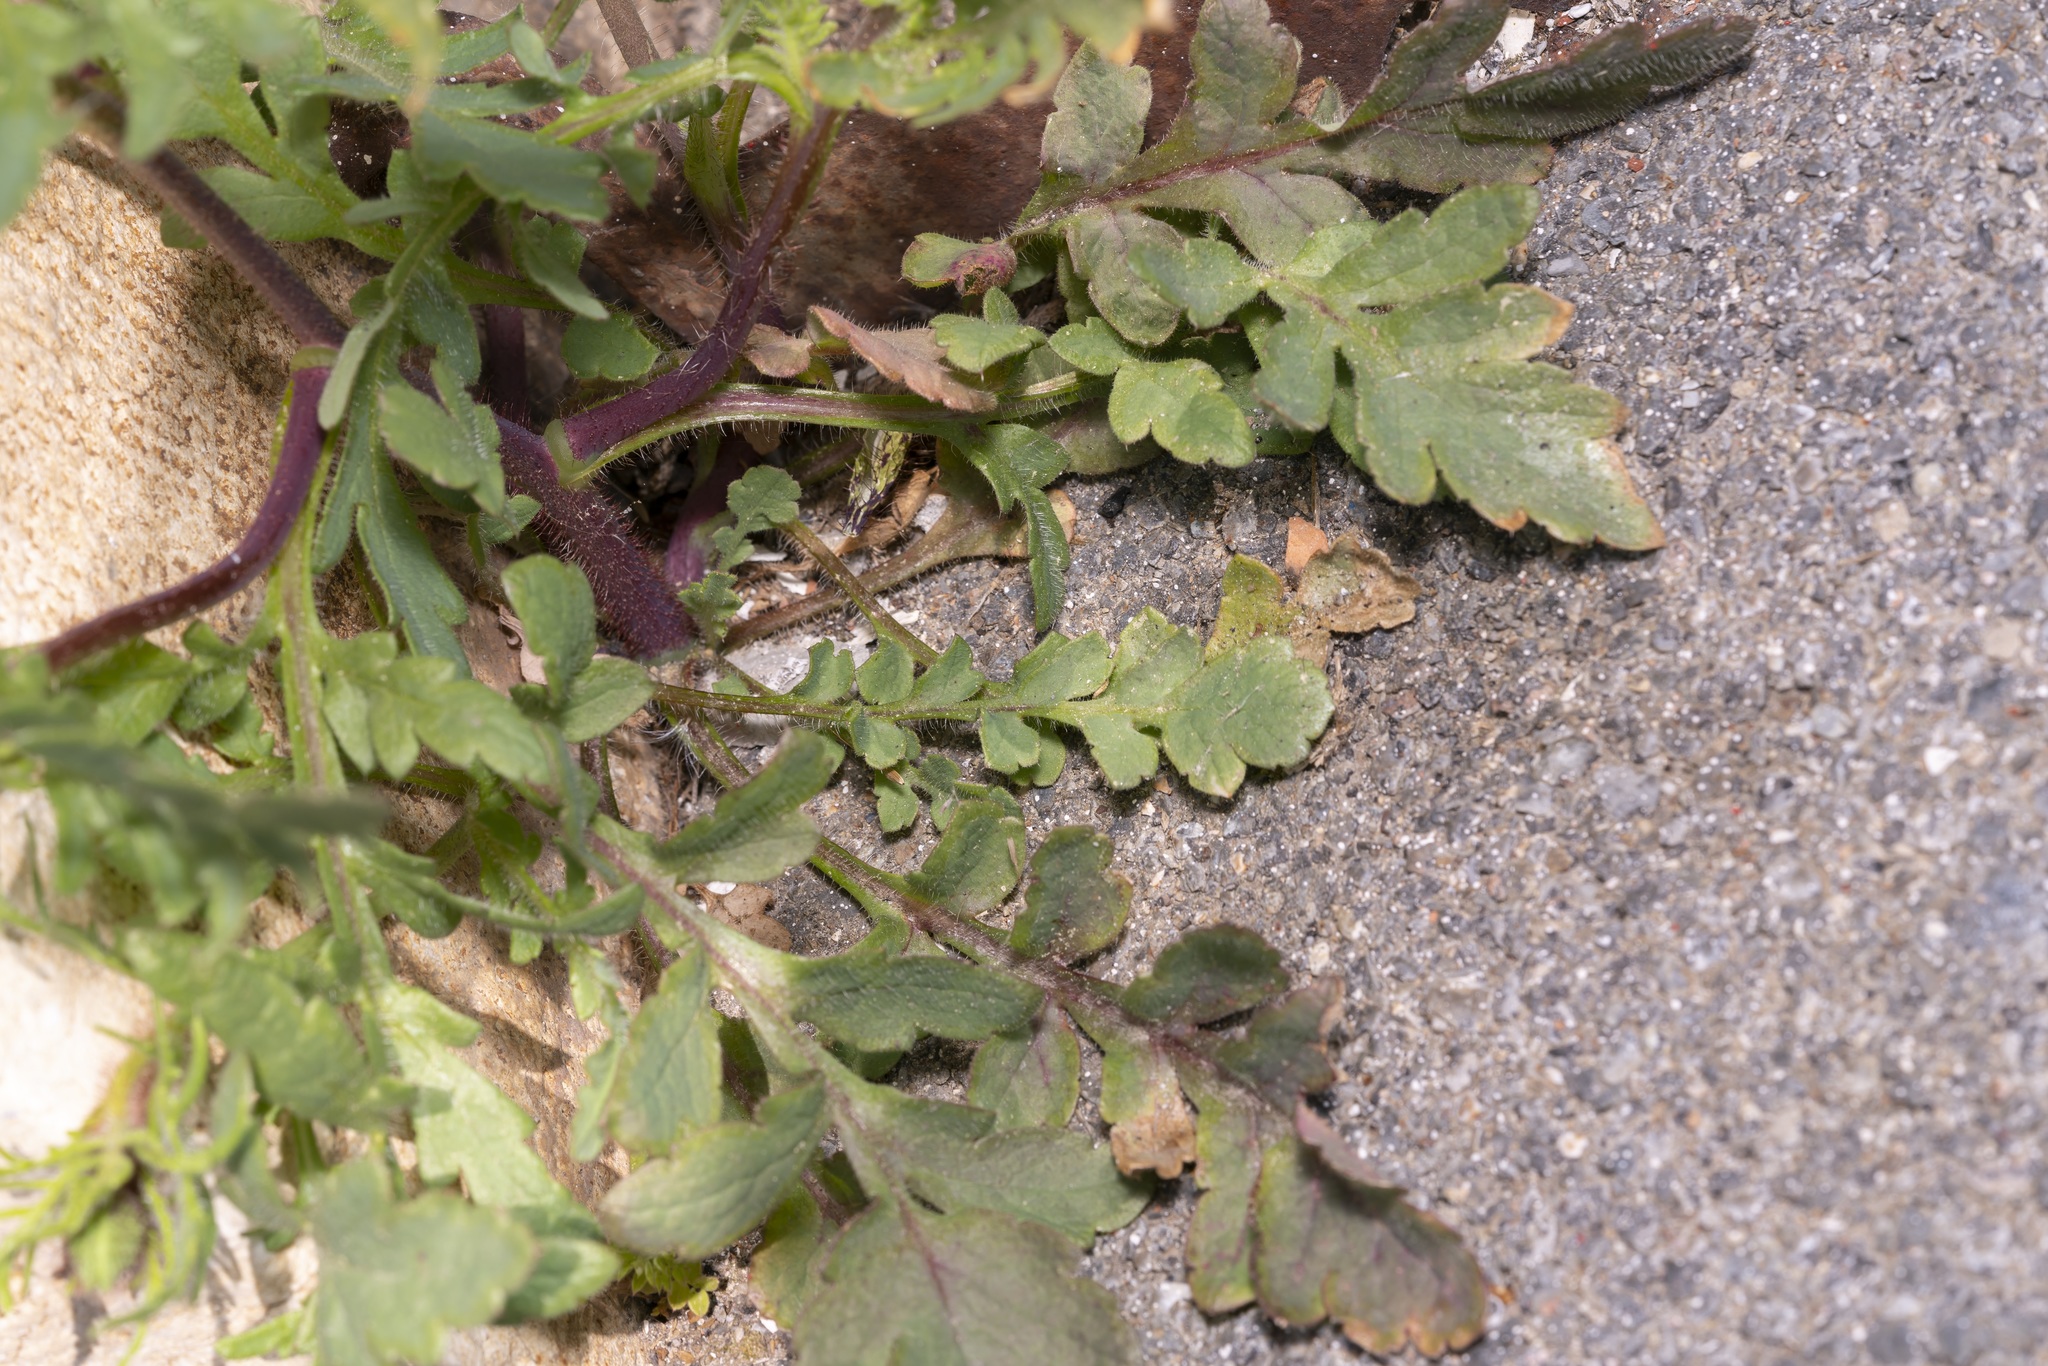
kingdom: Plantae
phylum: Tracheophyta
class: Magnoliopsida
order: Ranunculales
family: Papaveraceae
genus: Papaver
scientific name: Papaver rhoeas
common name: Corn poppy
